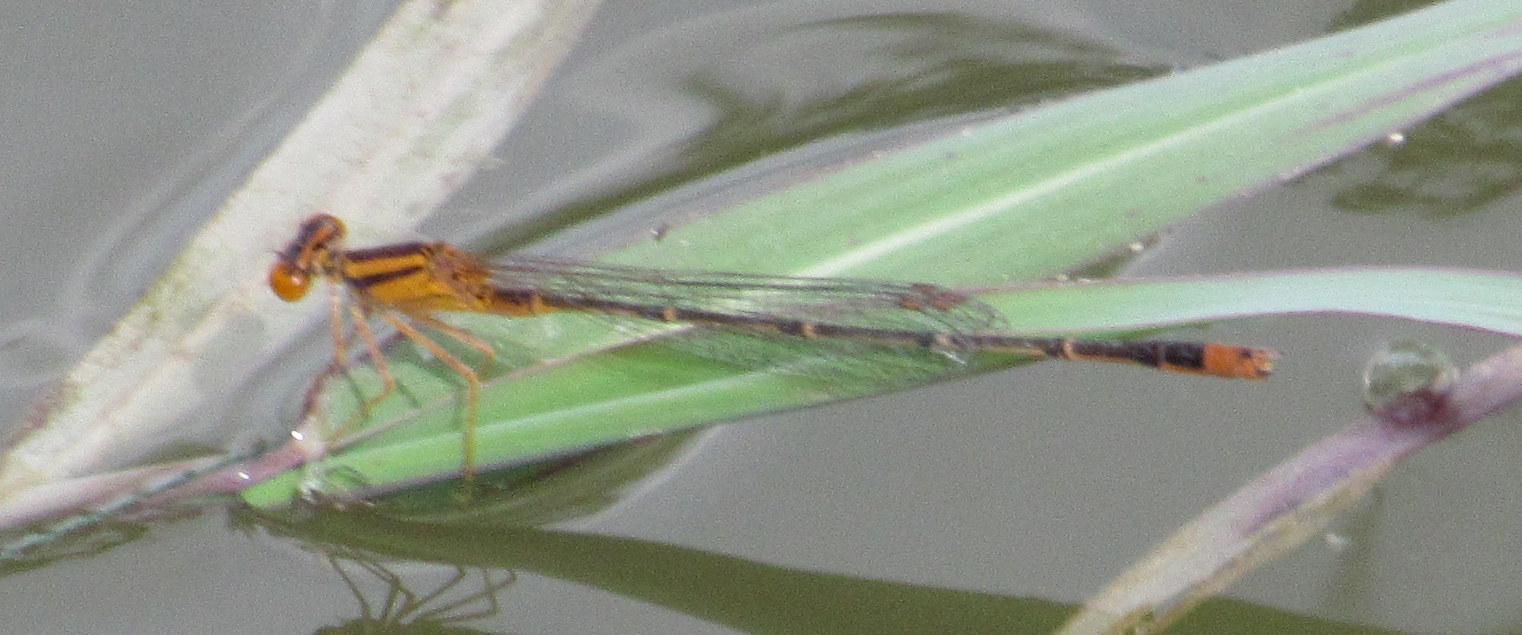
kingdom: Animalia
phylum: Arthropoda
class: Insecta
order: Odonata
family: Coenagrionidae
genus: Enallagma
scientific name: Enallagma signatum
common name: Orange bluet
